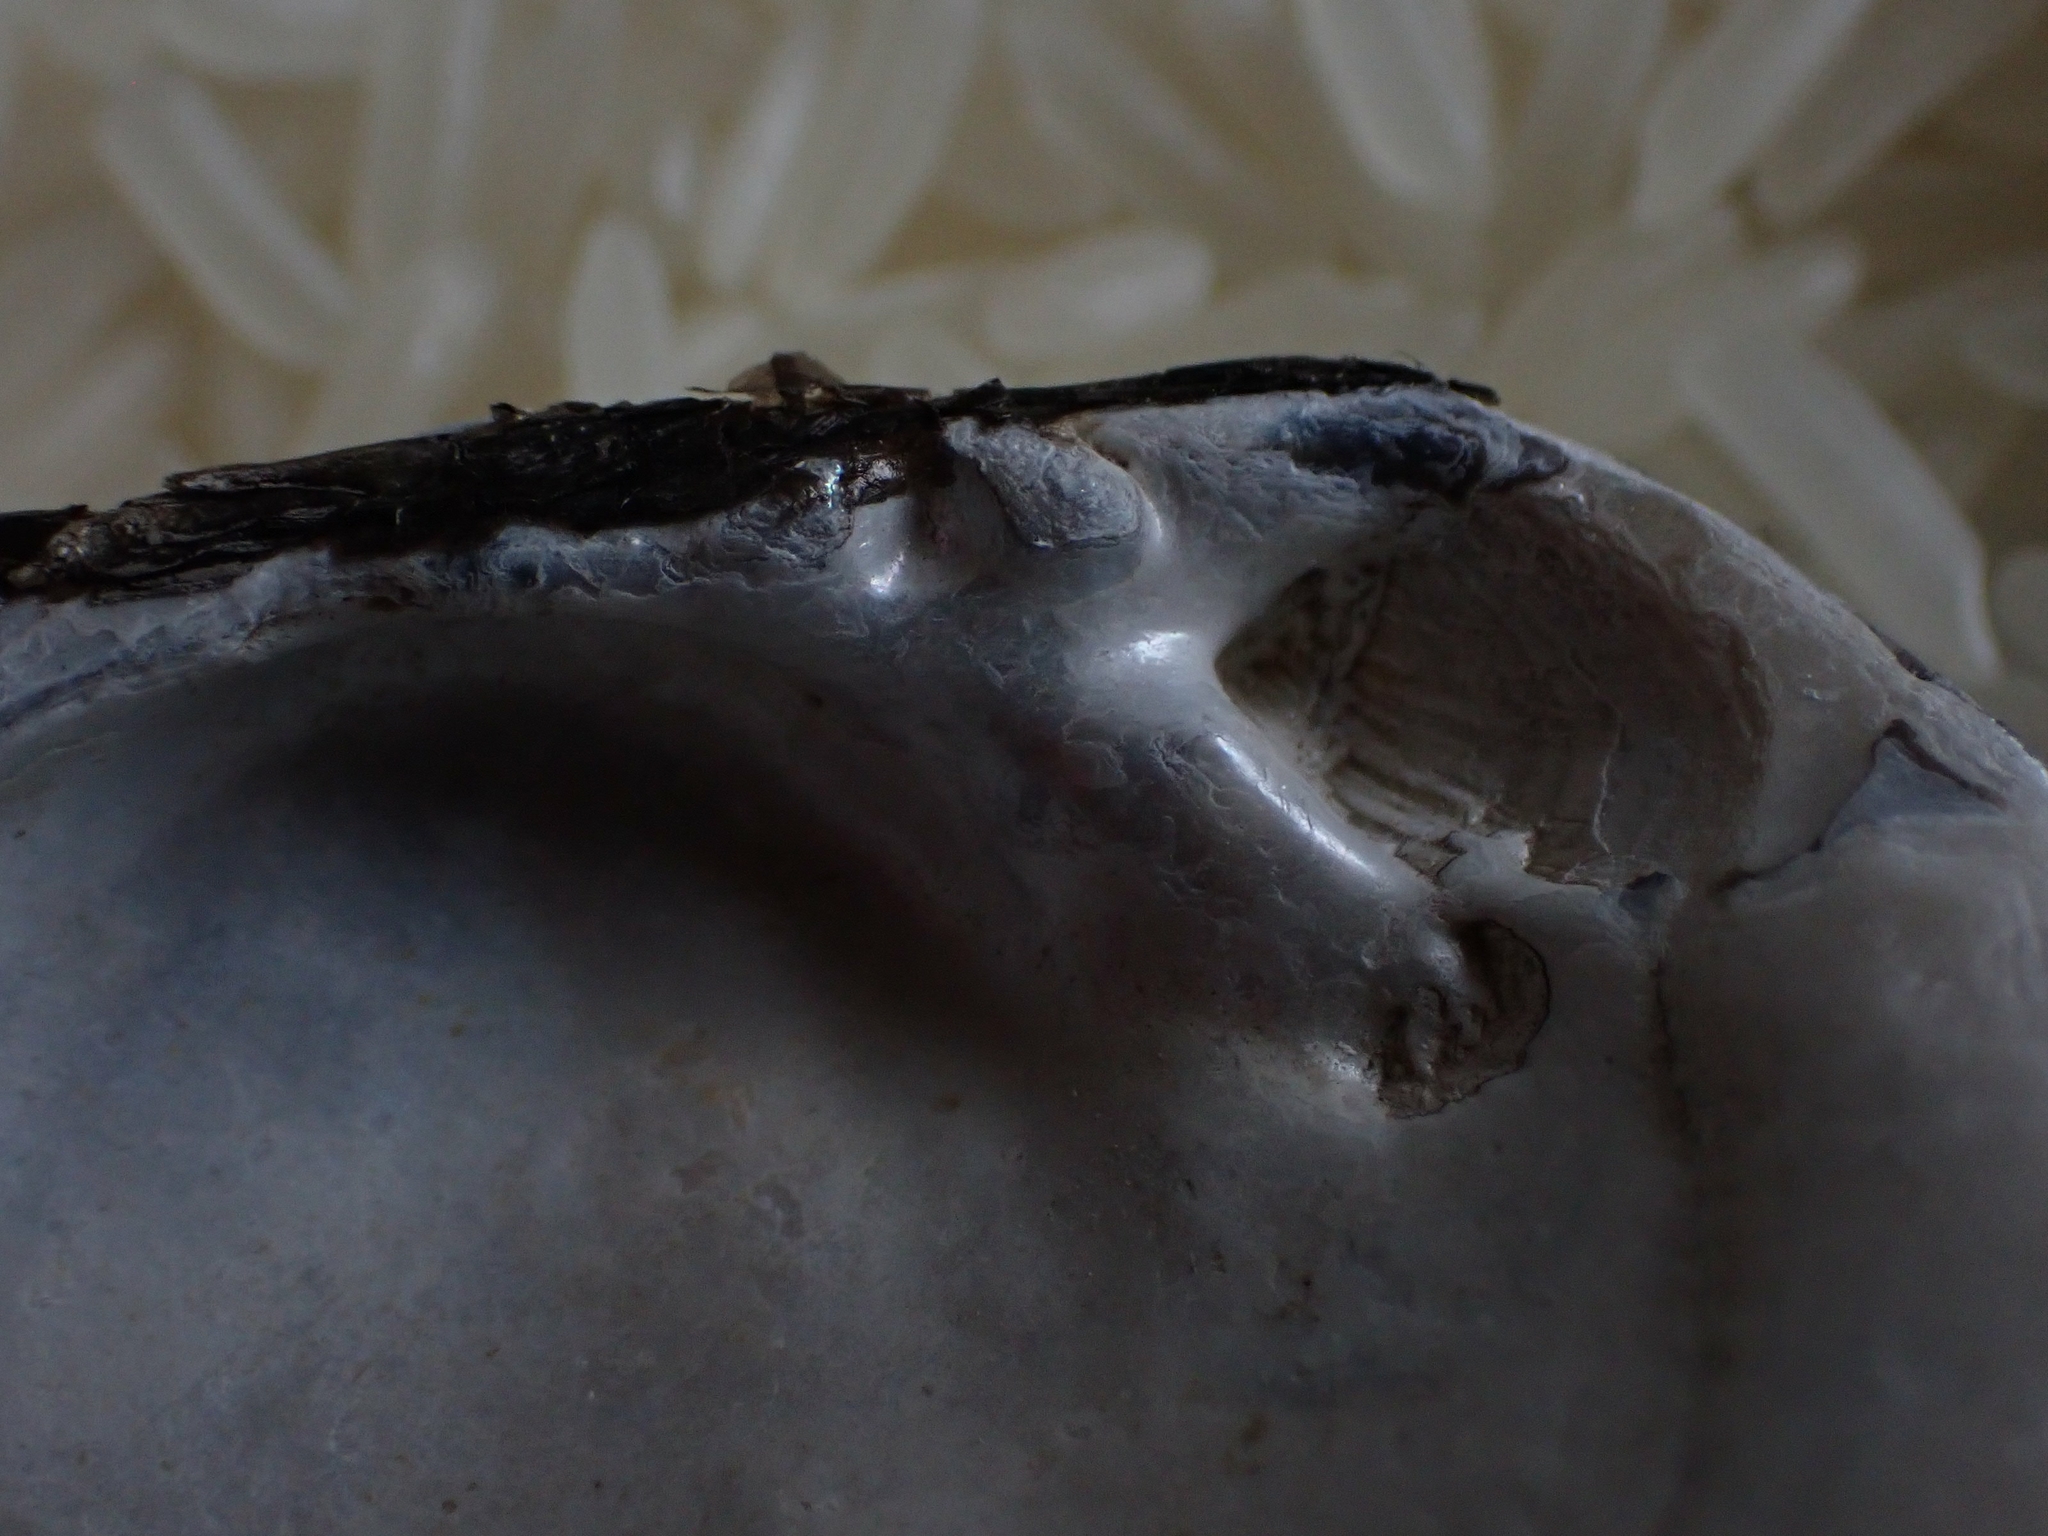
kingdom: Animalia
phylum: Mollusca
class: Bivalvia
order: Unionida
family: Unionidae
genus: Lampsilis
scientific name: Lampsilis siliquoidea
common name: Fatmucket
